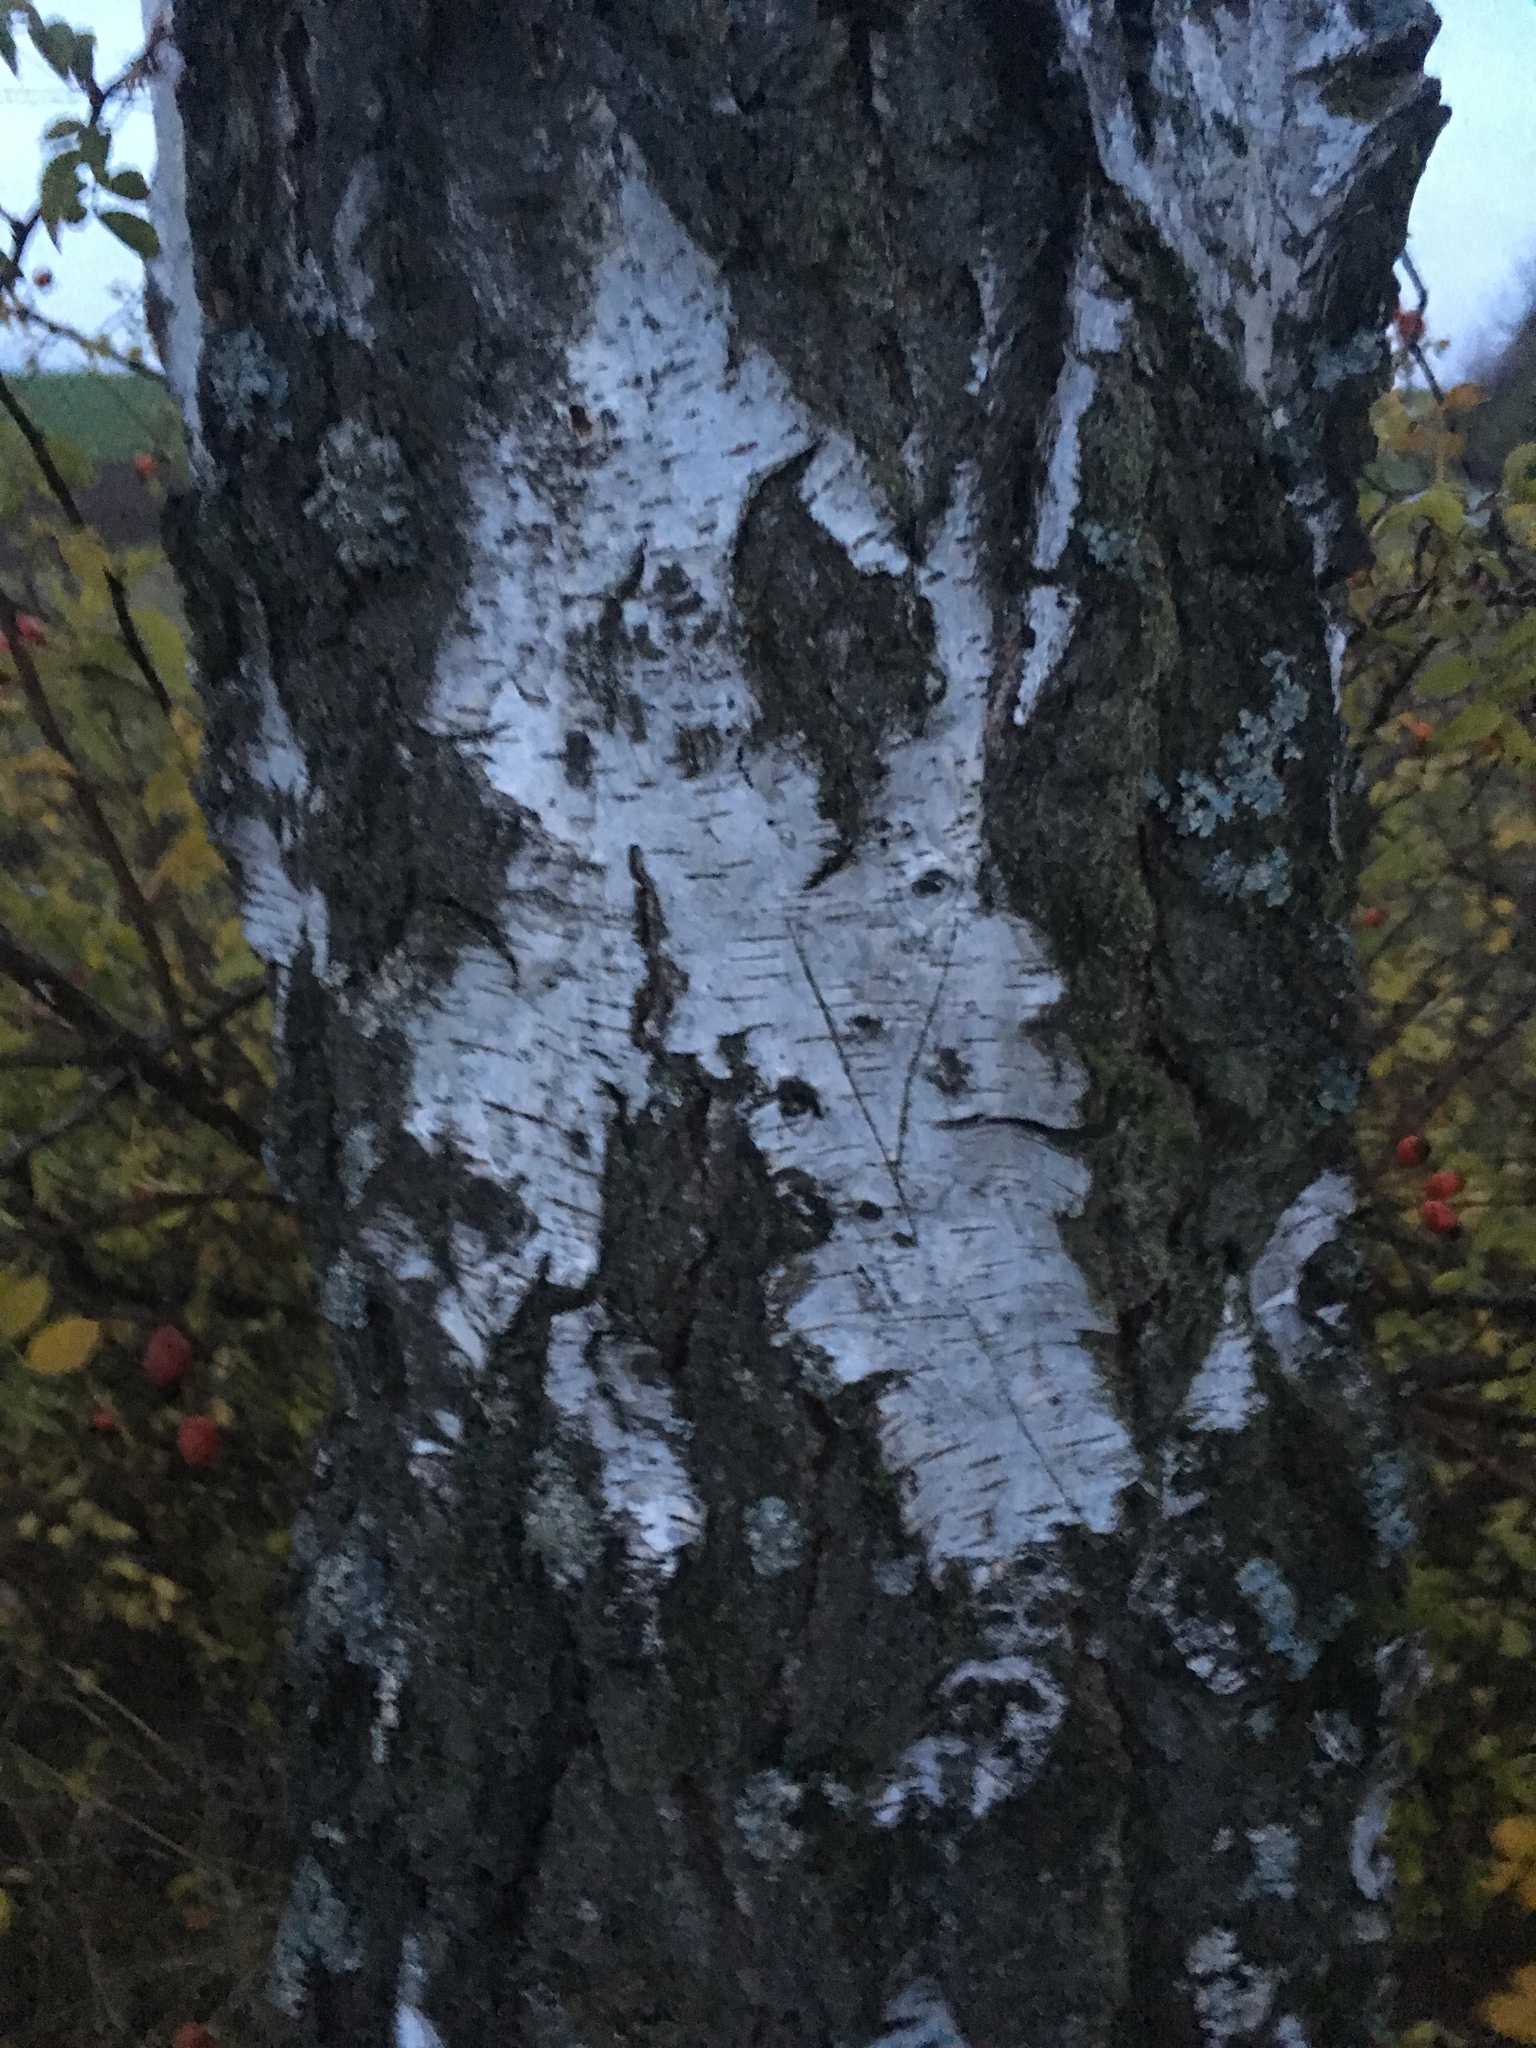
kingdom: Plantae
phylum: Tracheophyta
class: Magnoliopsida
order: Fagales
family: Betulaceae
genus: Betula
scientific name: Betula pendula
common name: Silver birch
